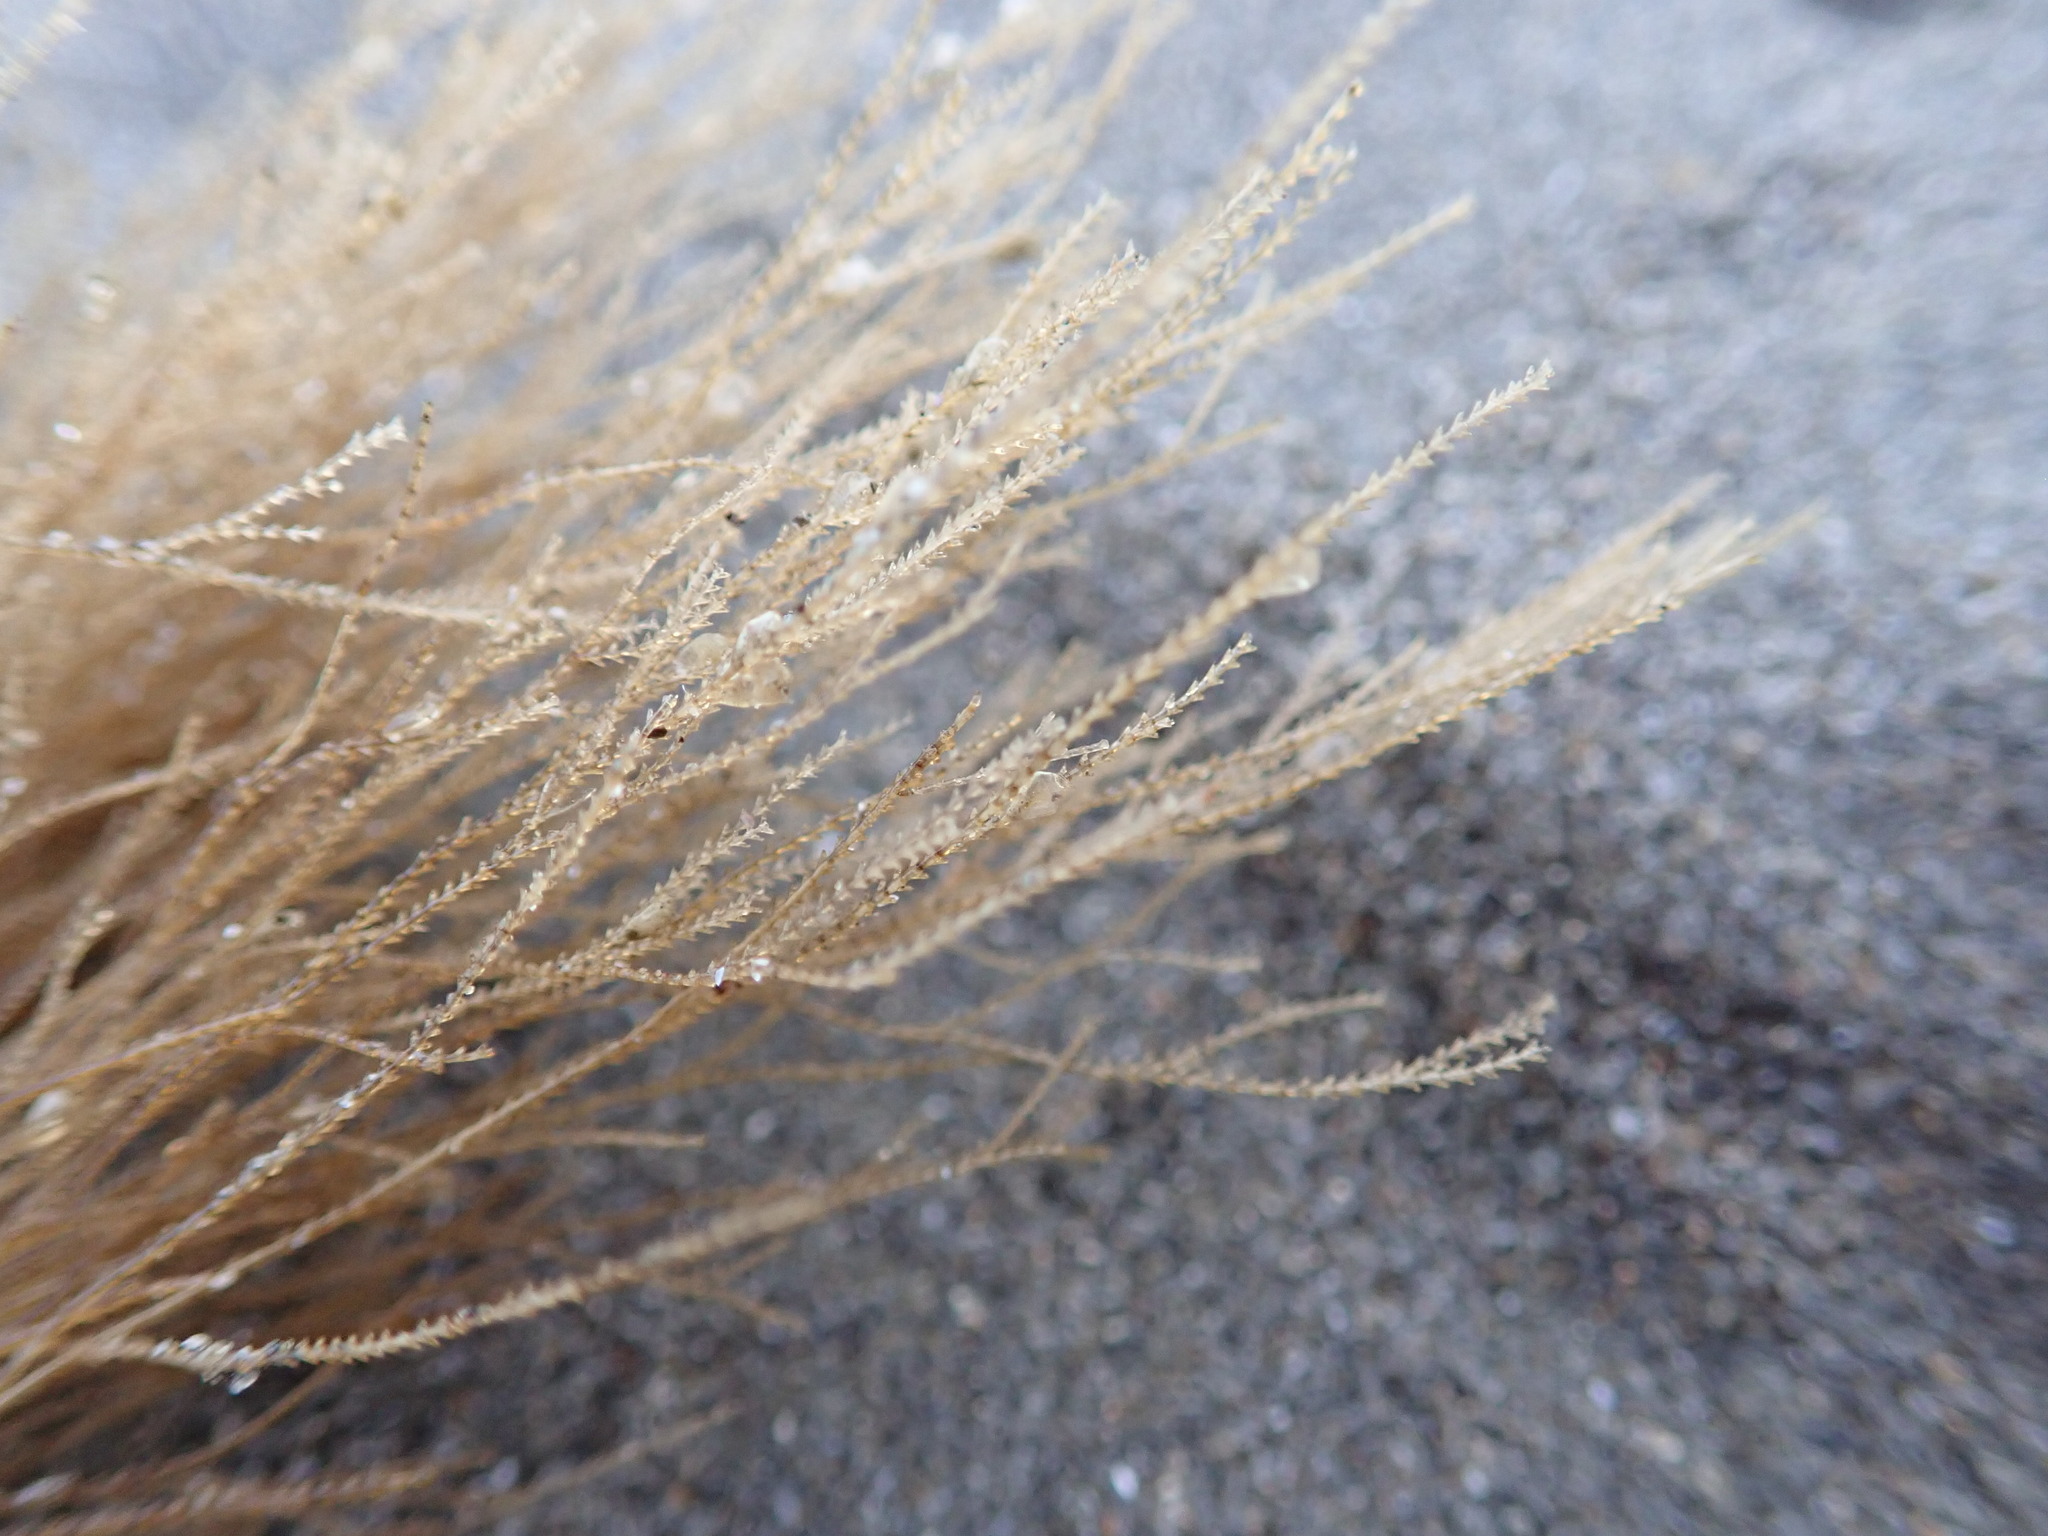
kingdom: Animalia
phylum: Cnidaria
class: Hydrozoa
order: Leptothecata
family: Sertulariidae
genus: Amphisbetia
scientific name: Amphisbetia bispinosa
